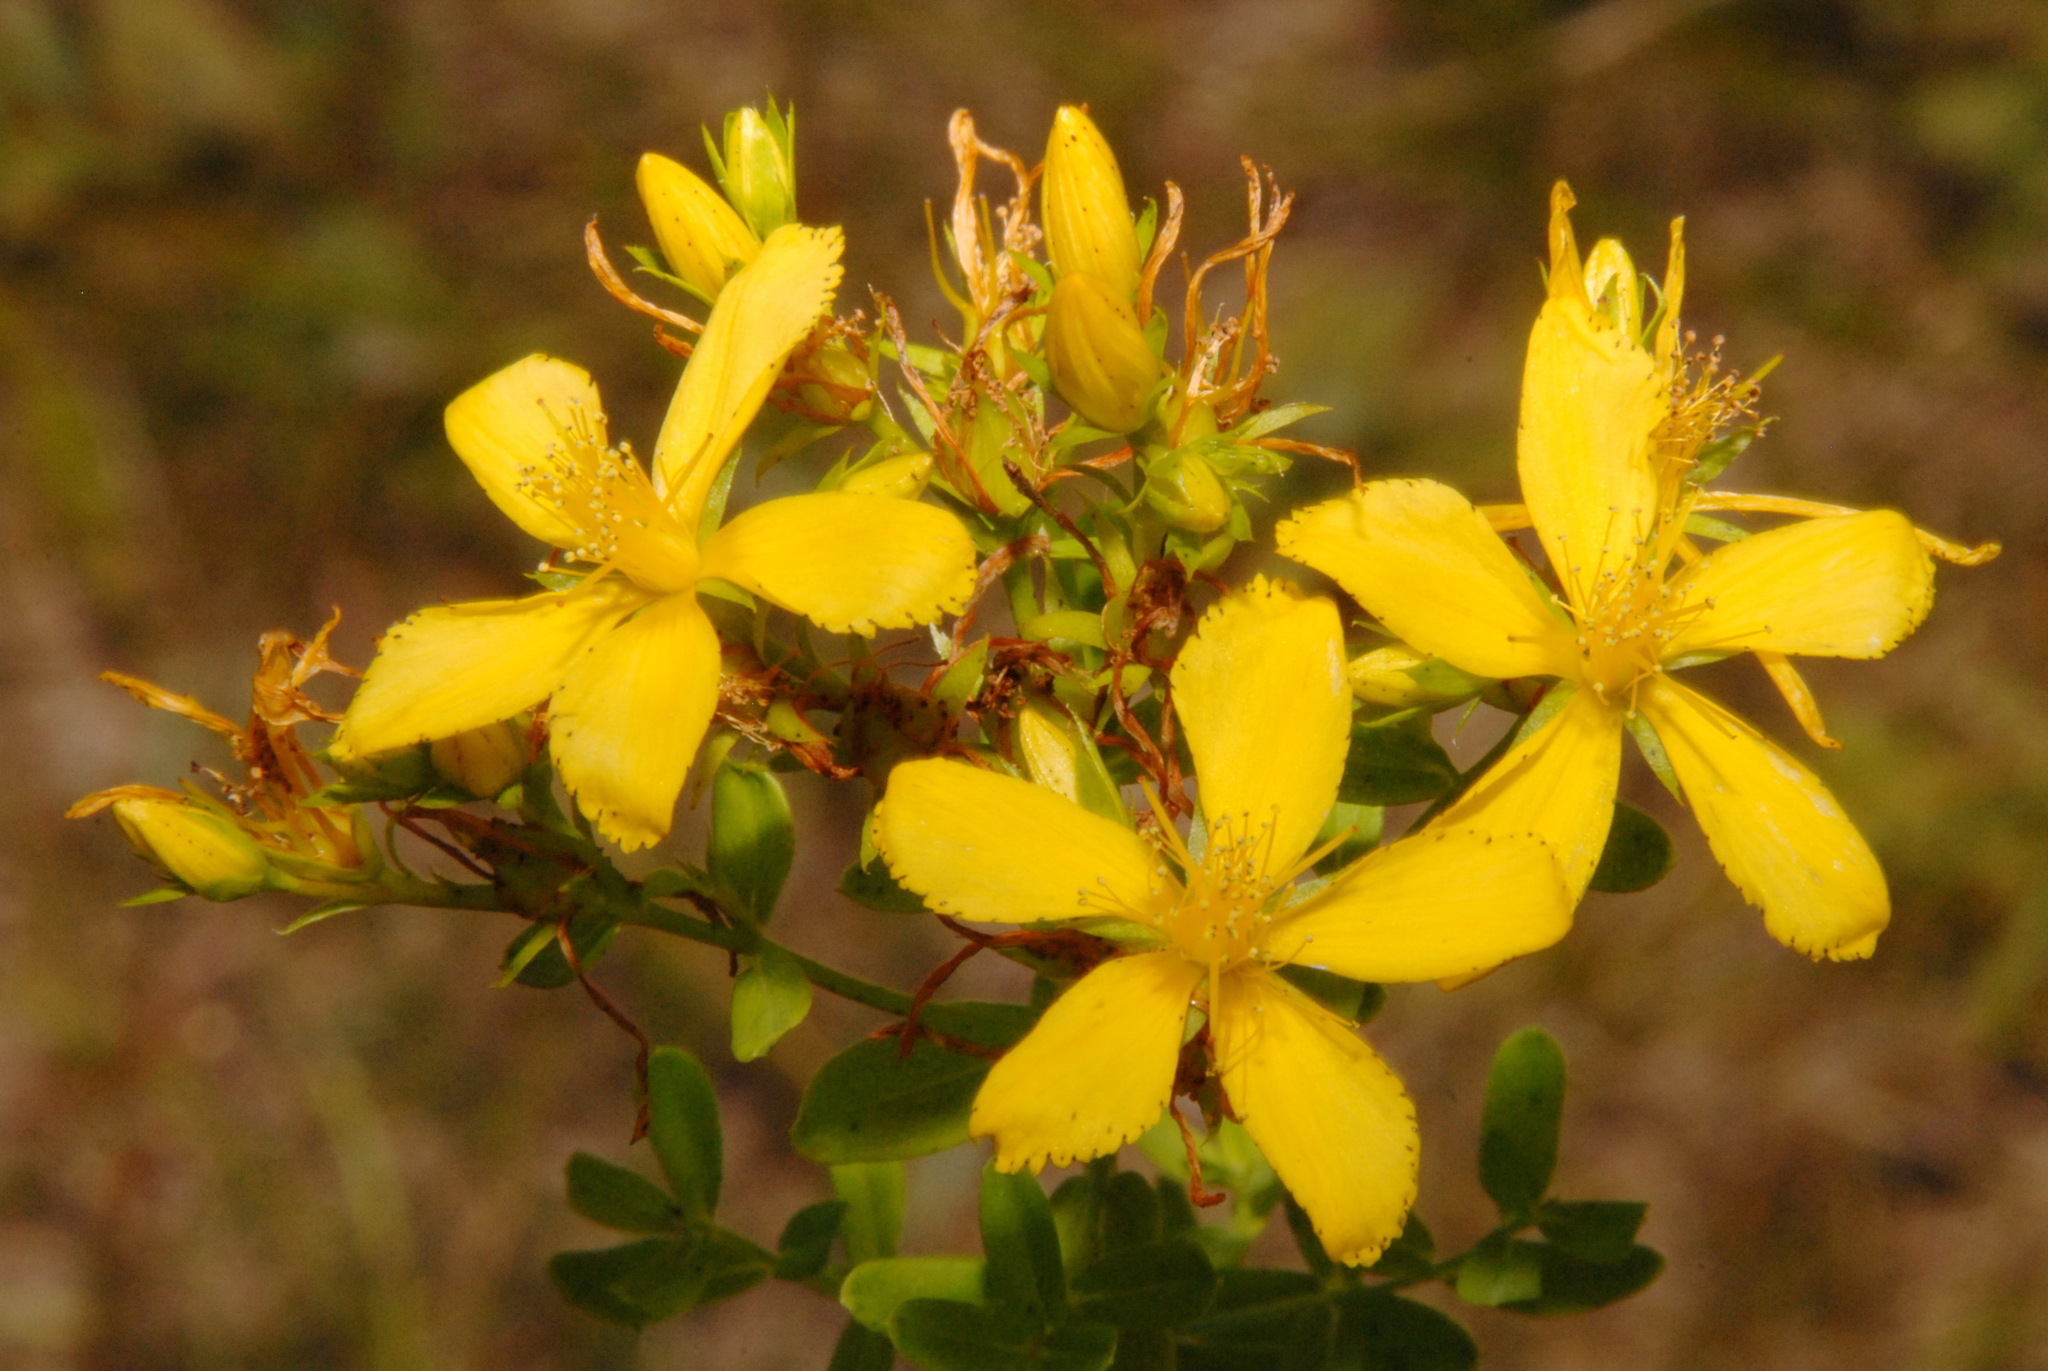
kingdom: Plantae
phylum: Tracheophyta
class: Magnoliopsida
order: Malpighiales
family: Hypericaceae
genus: Hypericum
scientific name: Hypericum perforatum
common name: Common st. johnswort
